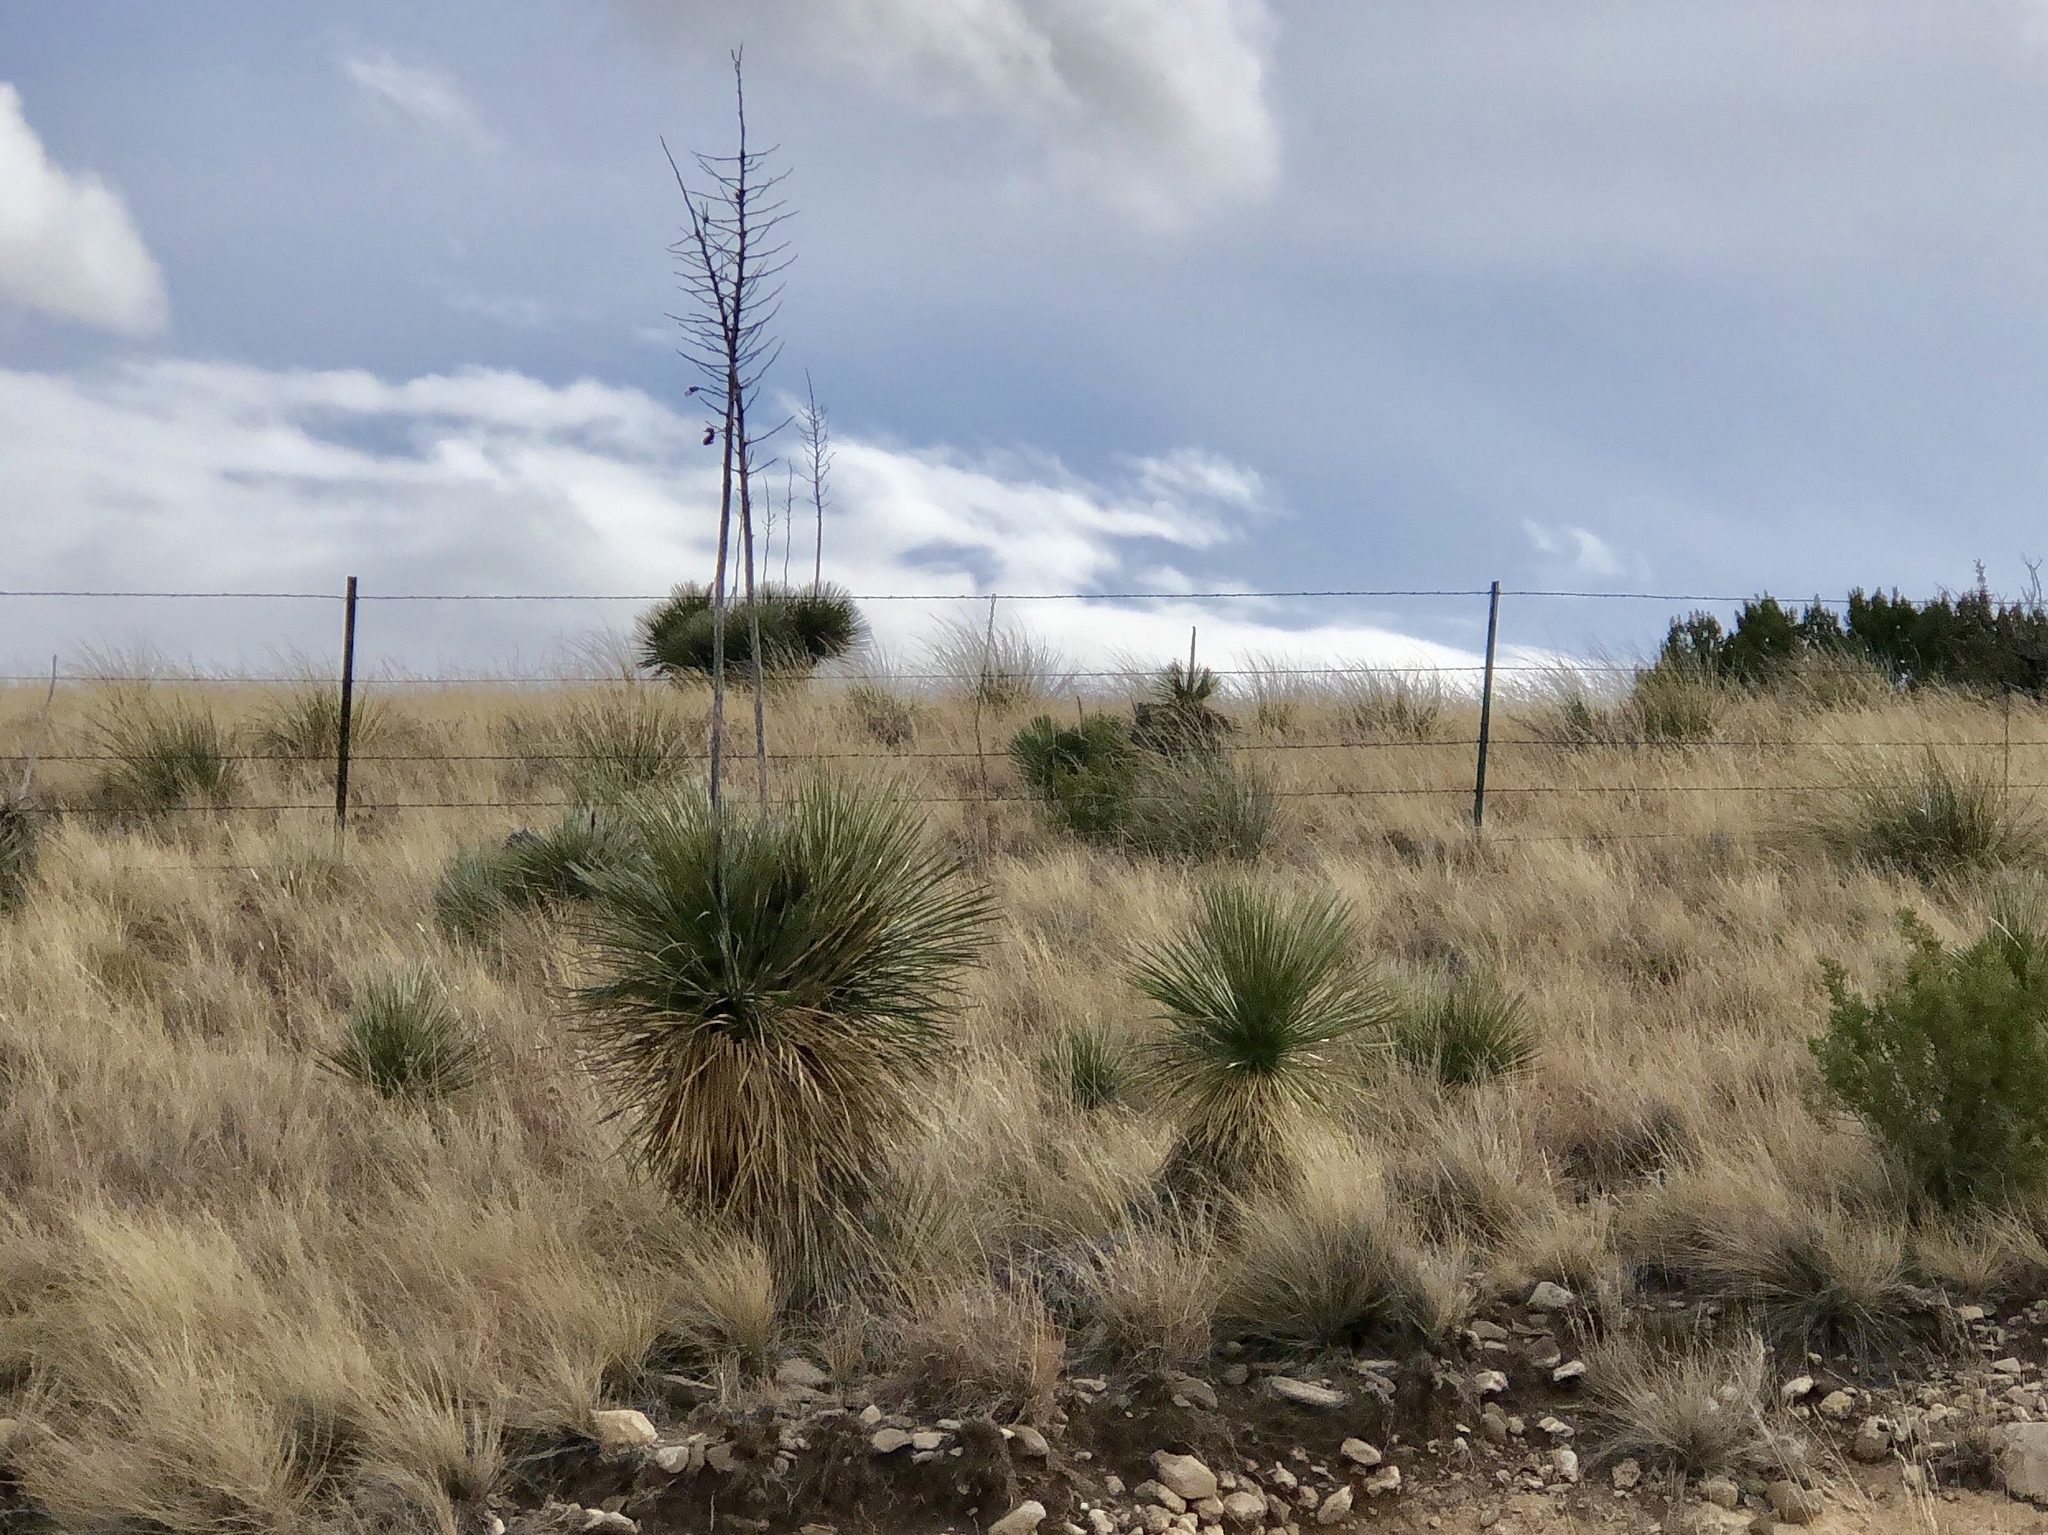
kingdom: Plantae
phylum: Tracheophyta
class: Liliopsida
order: Asparagales
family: Asparagaceae
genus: Yucca
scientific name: Yucca elata
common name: Palmella
